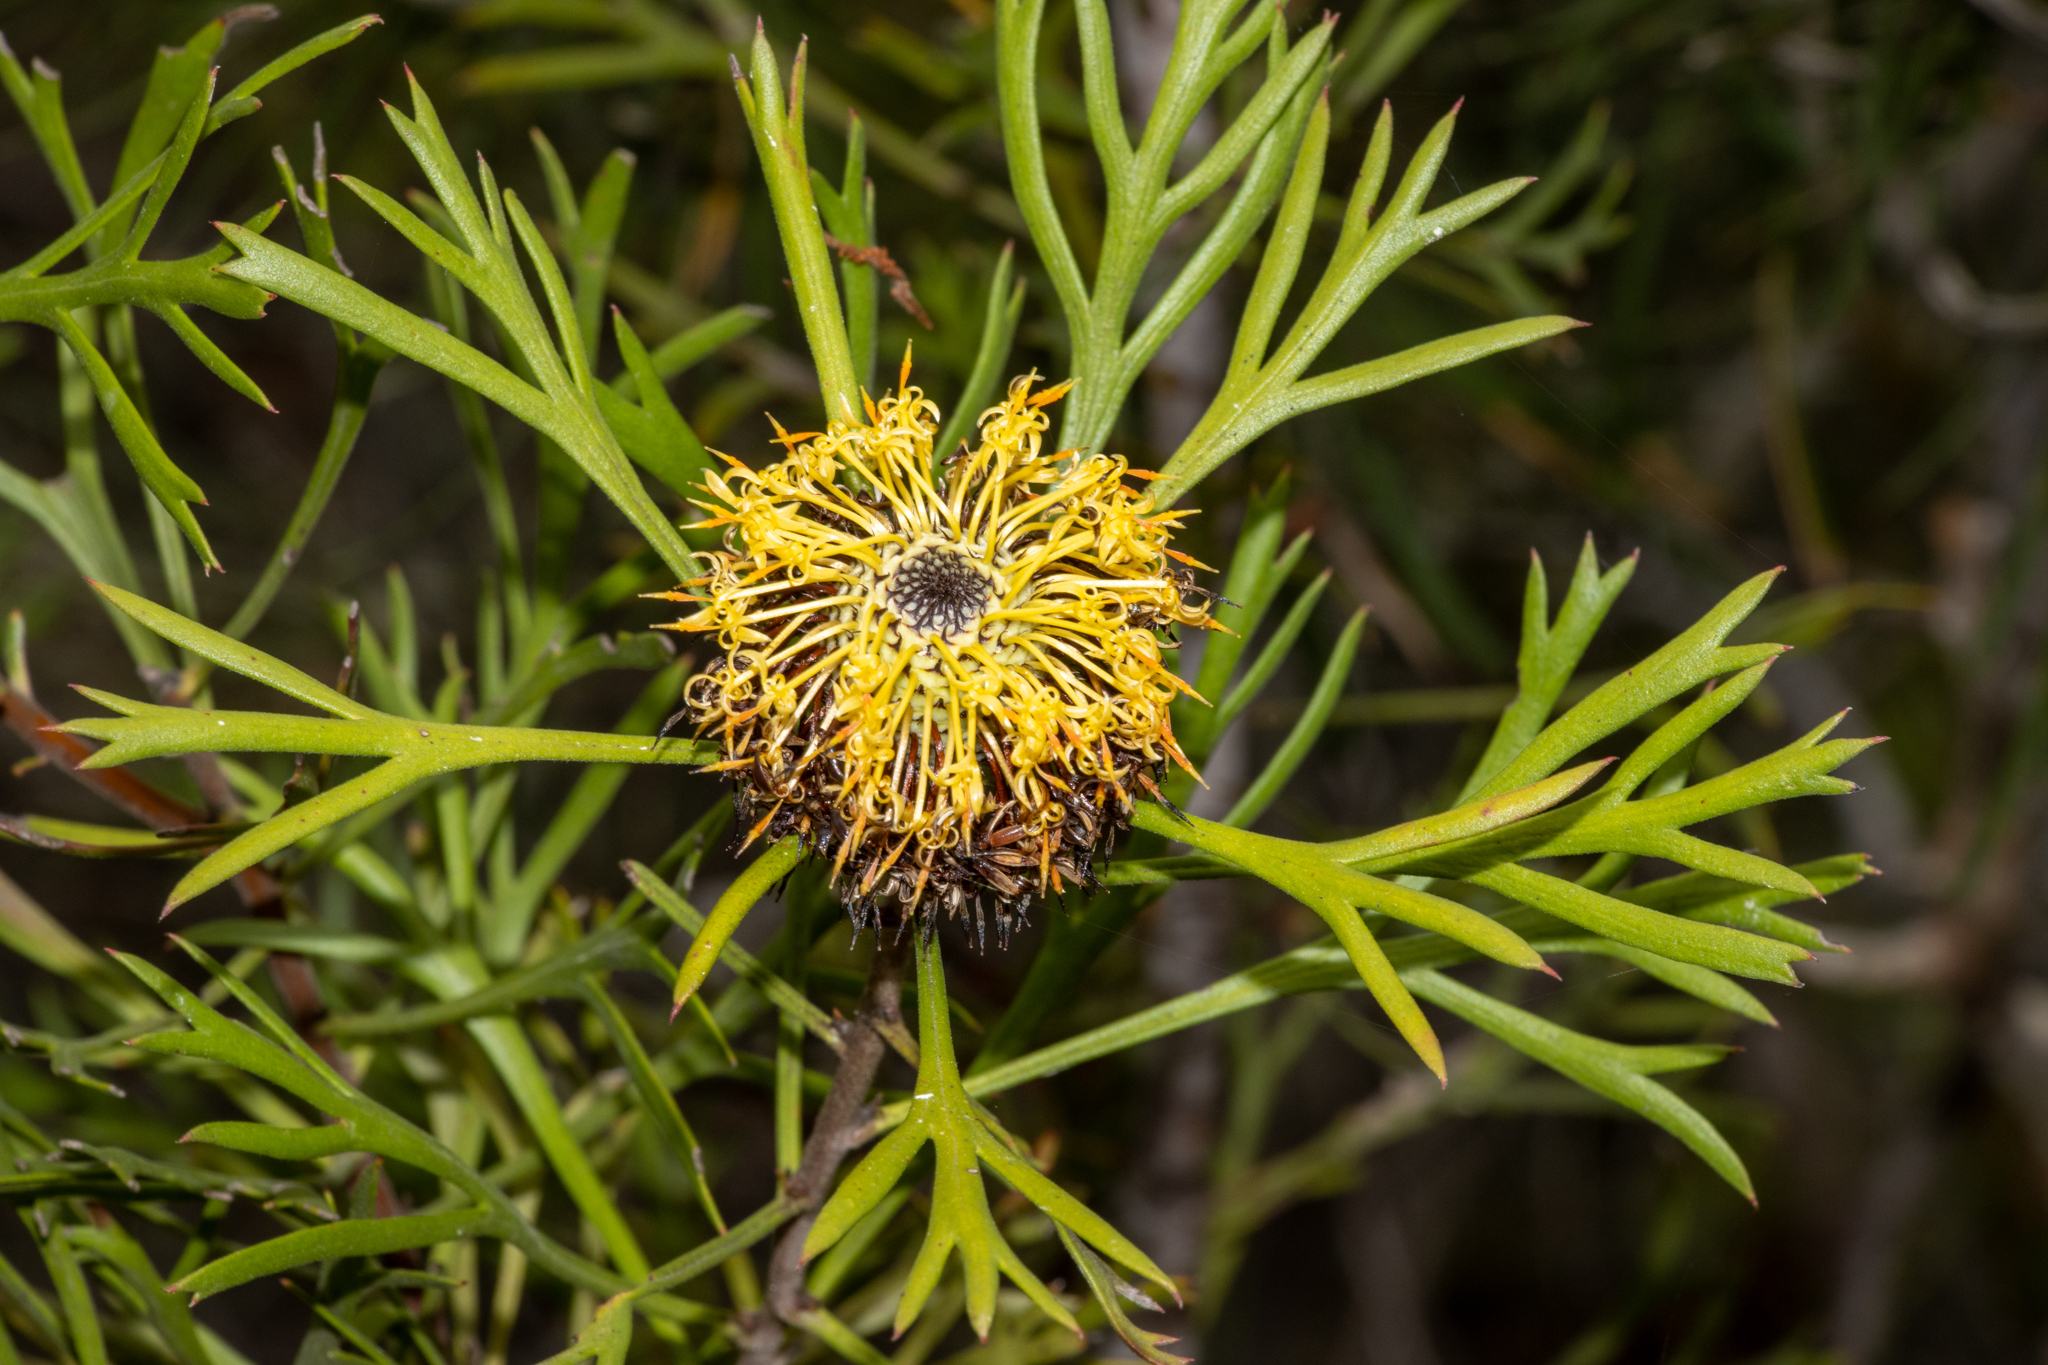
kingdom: Plantae
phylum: Tracheophyta
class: Magnoliopsida
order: Proteales
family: Proteaceae
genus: Isopogon
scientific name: Isopogon anemonifolius
